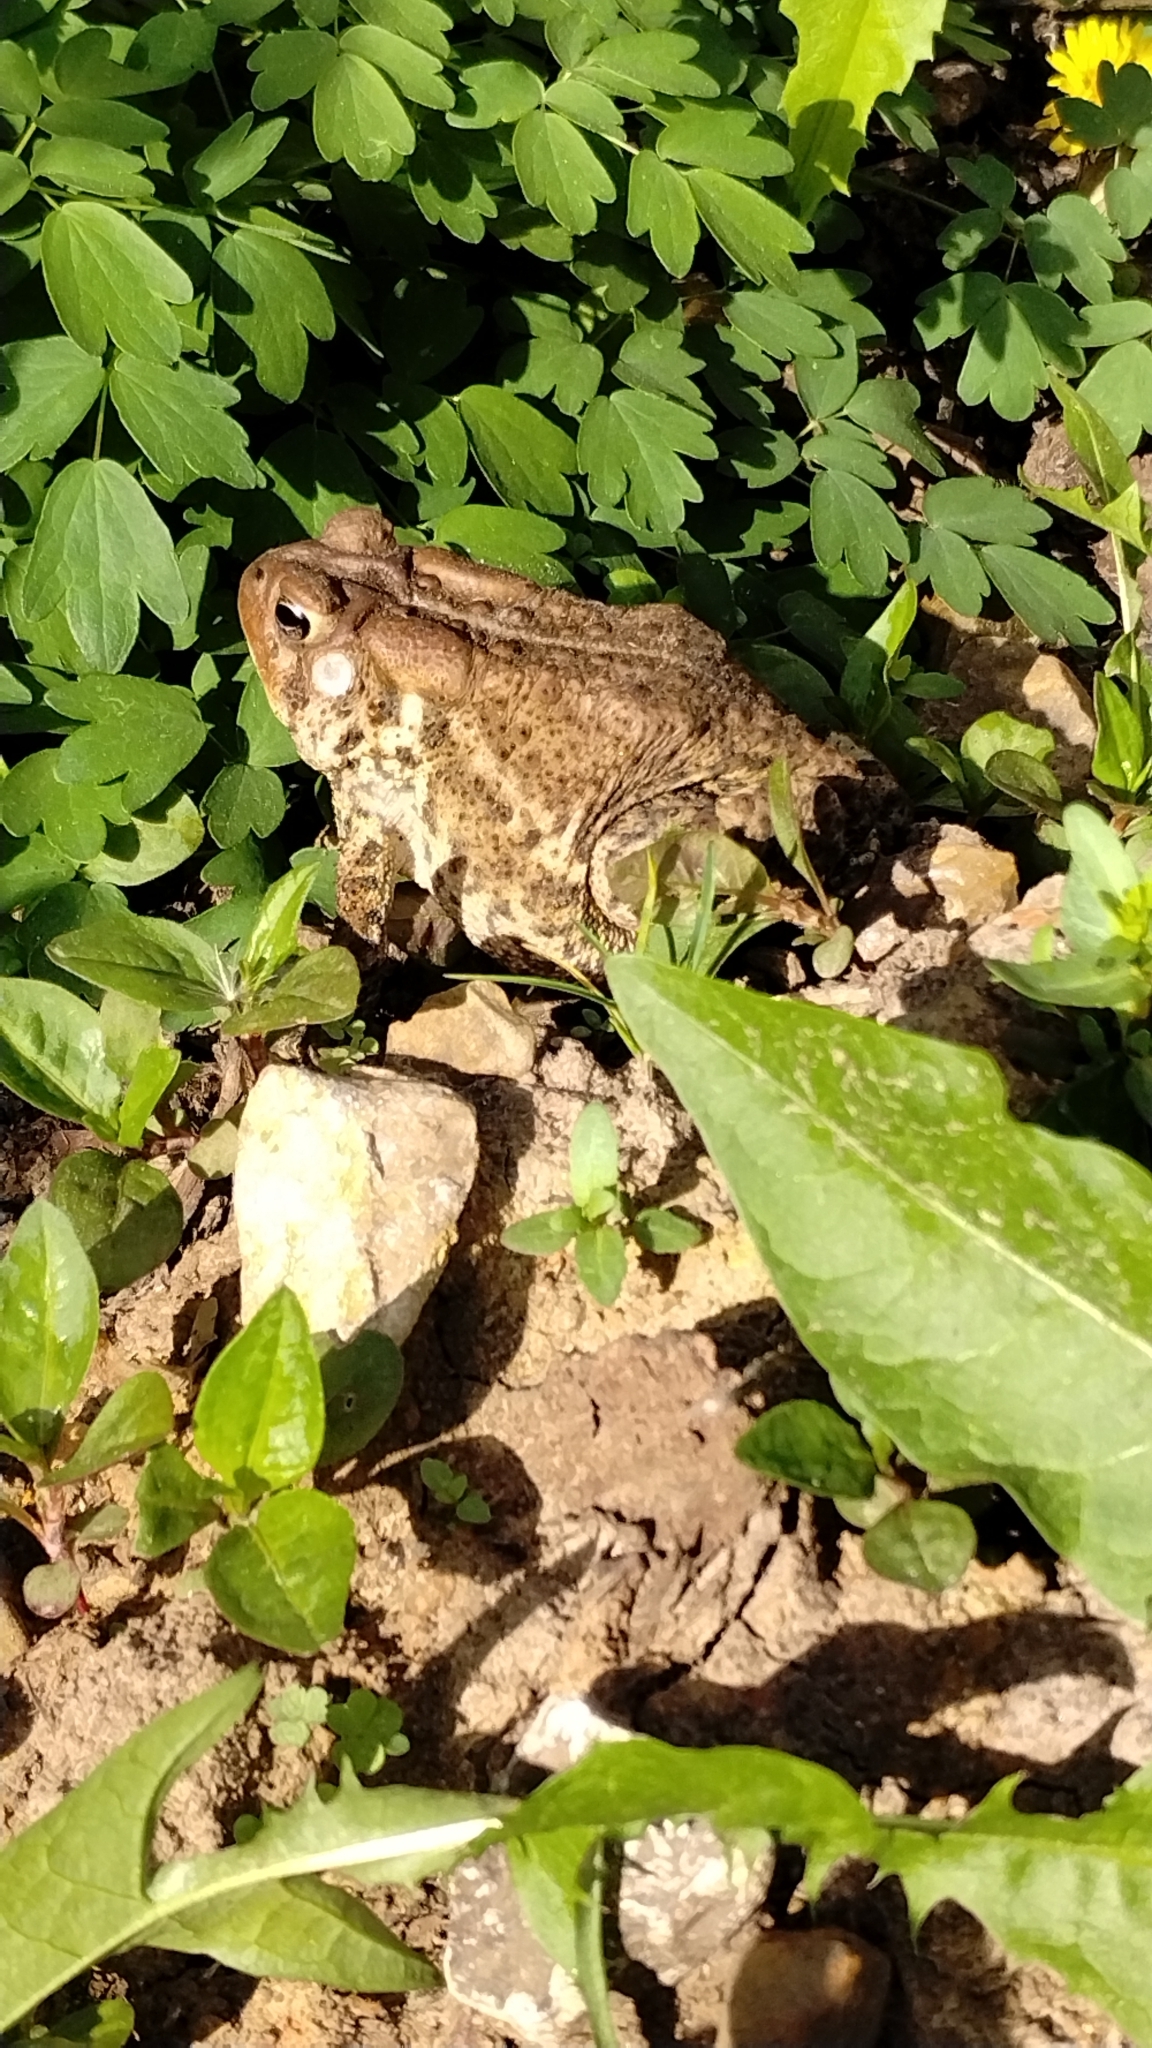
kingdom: Animalia
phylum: Chordata
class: Amphibia
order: Anura
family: Bufonidae
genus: Anaxyrus
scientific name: Anaxyrus americanus
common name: American toad
